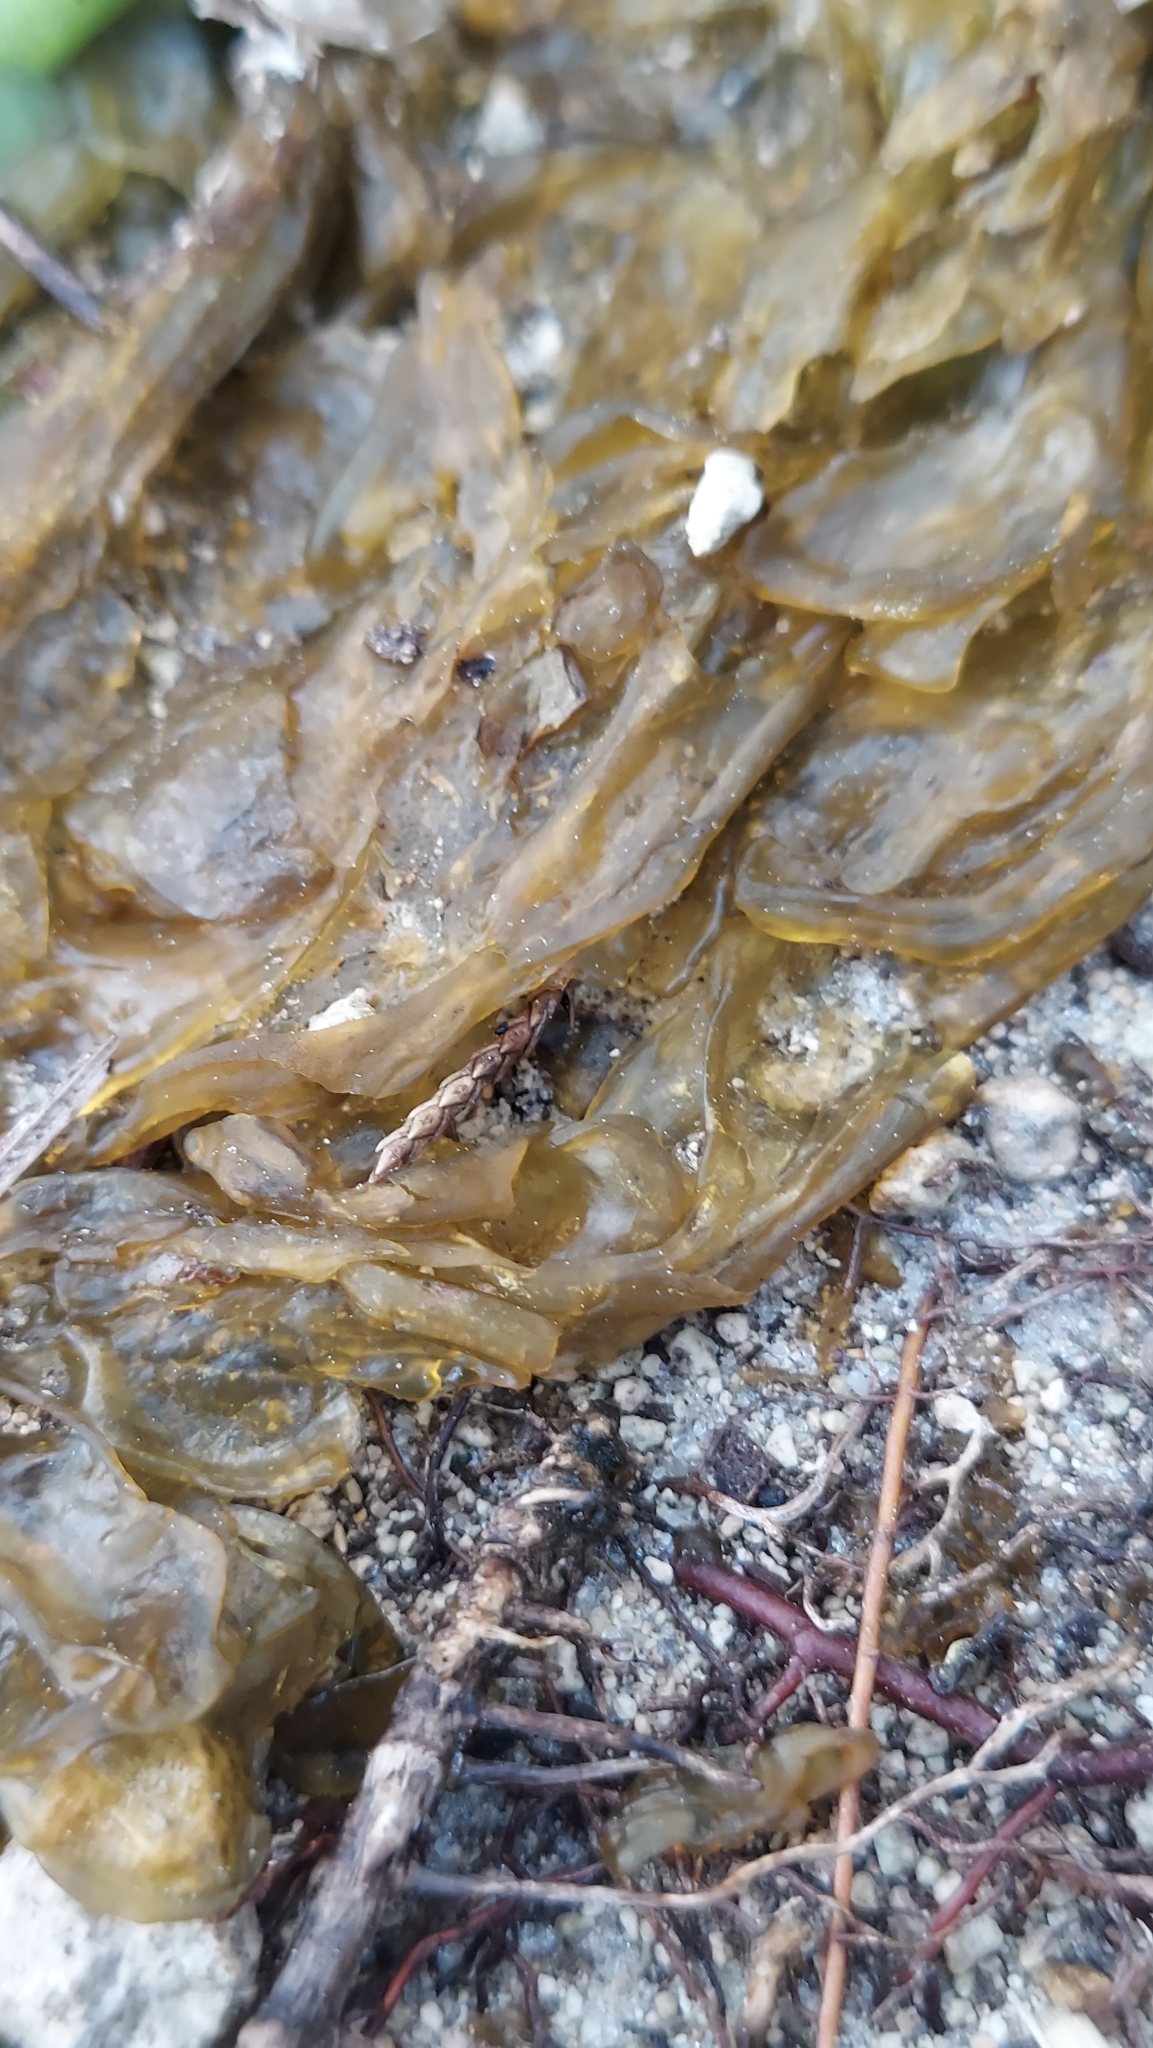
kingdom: Bacteria
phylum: Cyanobacteria
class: Cyanobacteriia
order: Cyanobacteriales
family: Nostocaceae
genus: Nostoc
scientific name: Nostoc commune
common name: Star jelly
